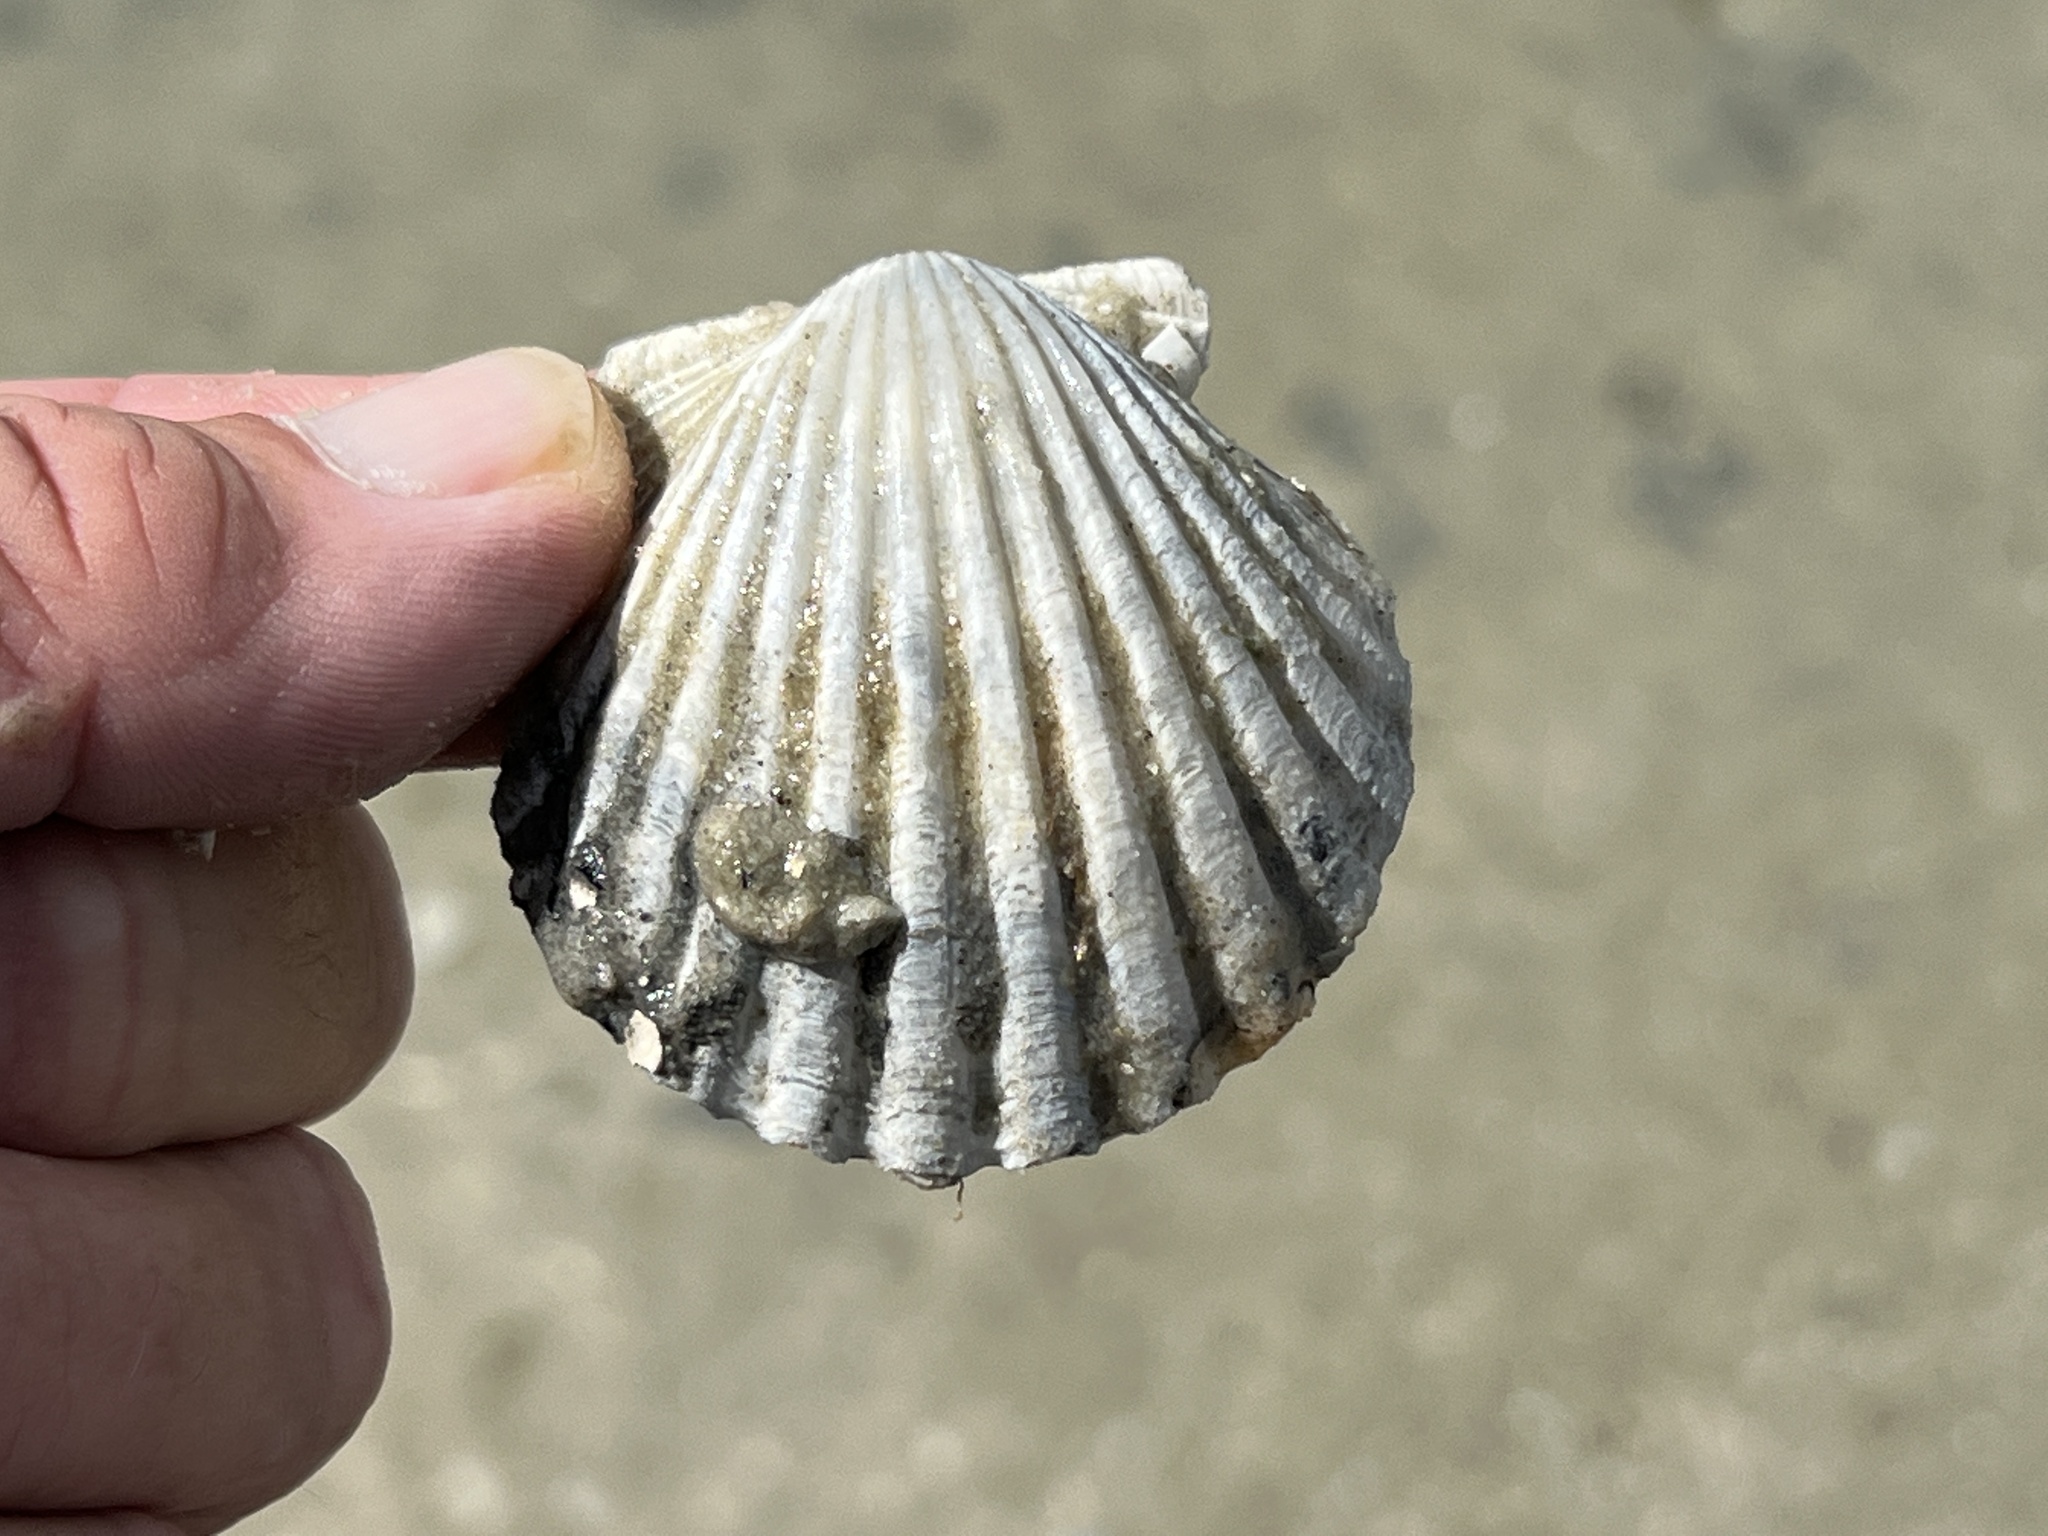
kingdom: Animalia
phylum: Mollusca
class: Bivalvia
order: Pectinida
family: Pectinidae
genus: Argopecten
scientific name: Argopecten irradians
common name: Atlantic bay scallop
